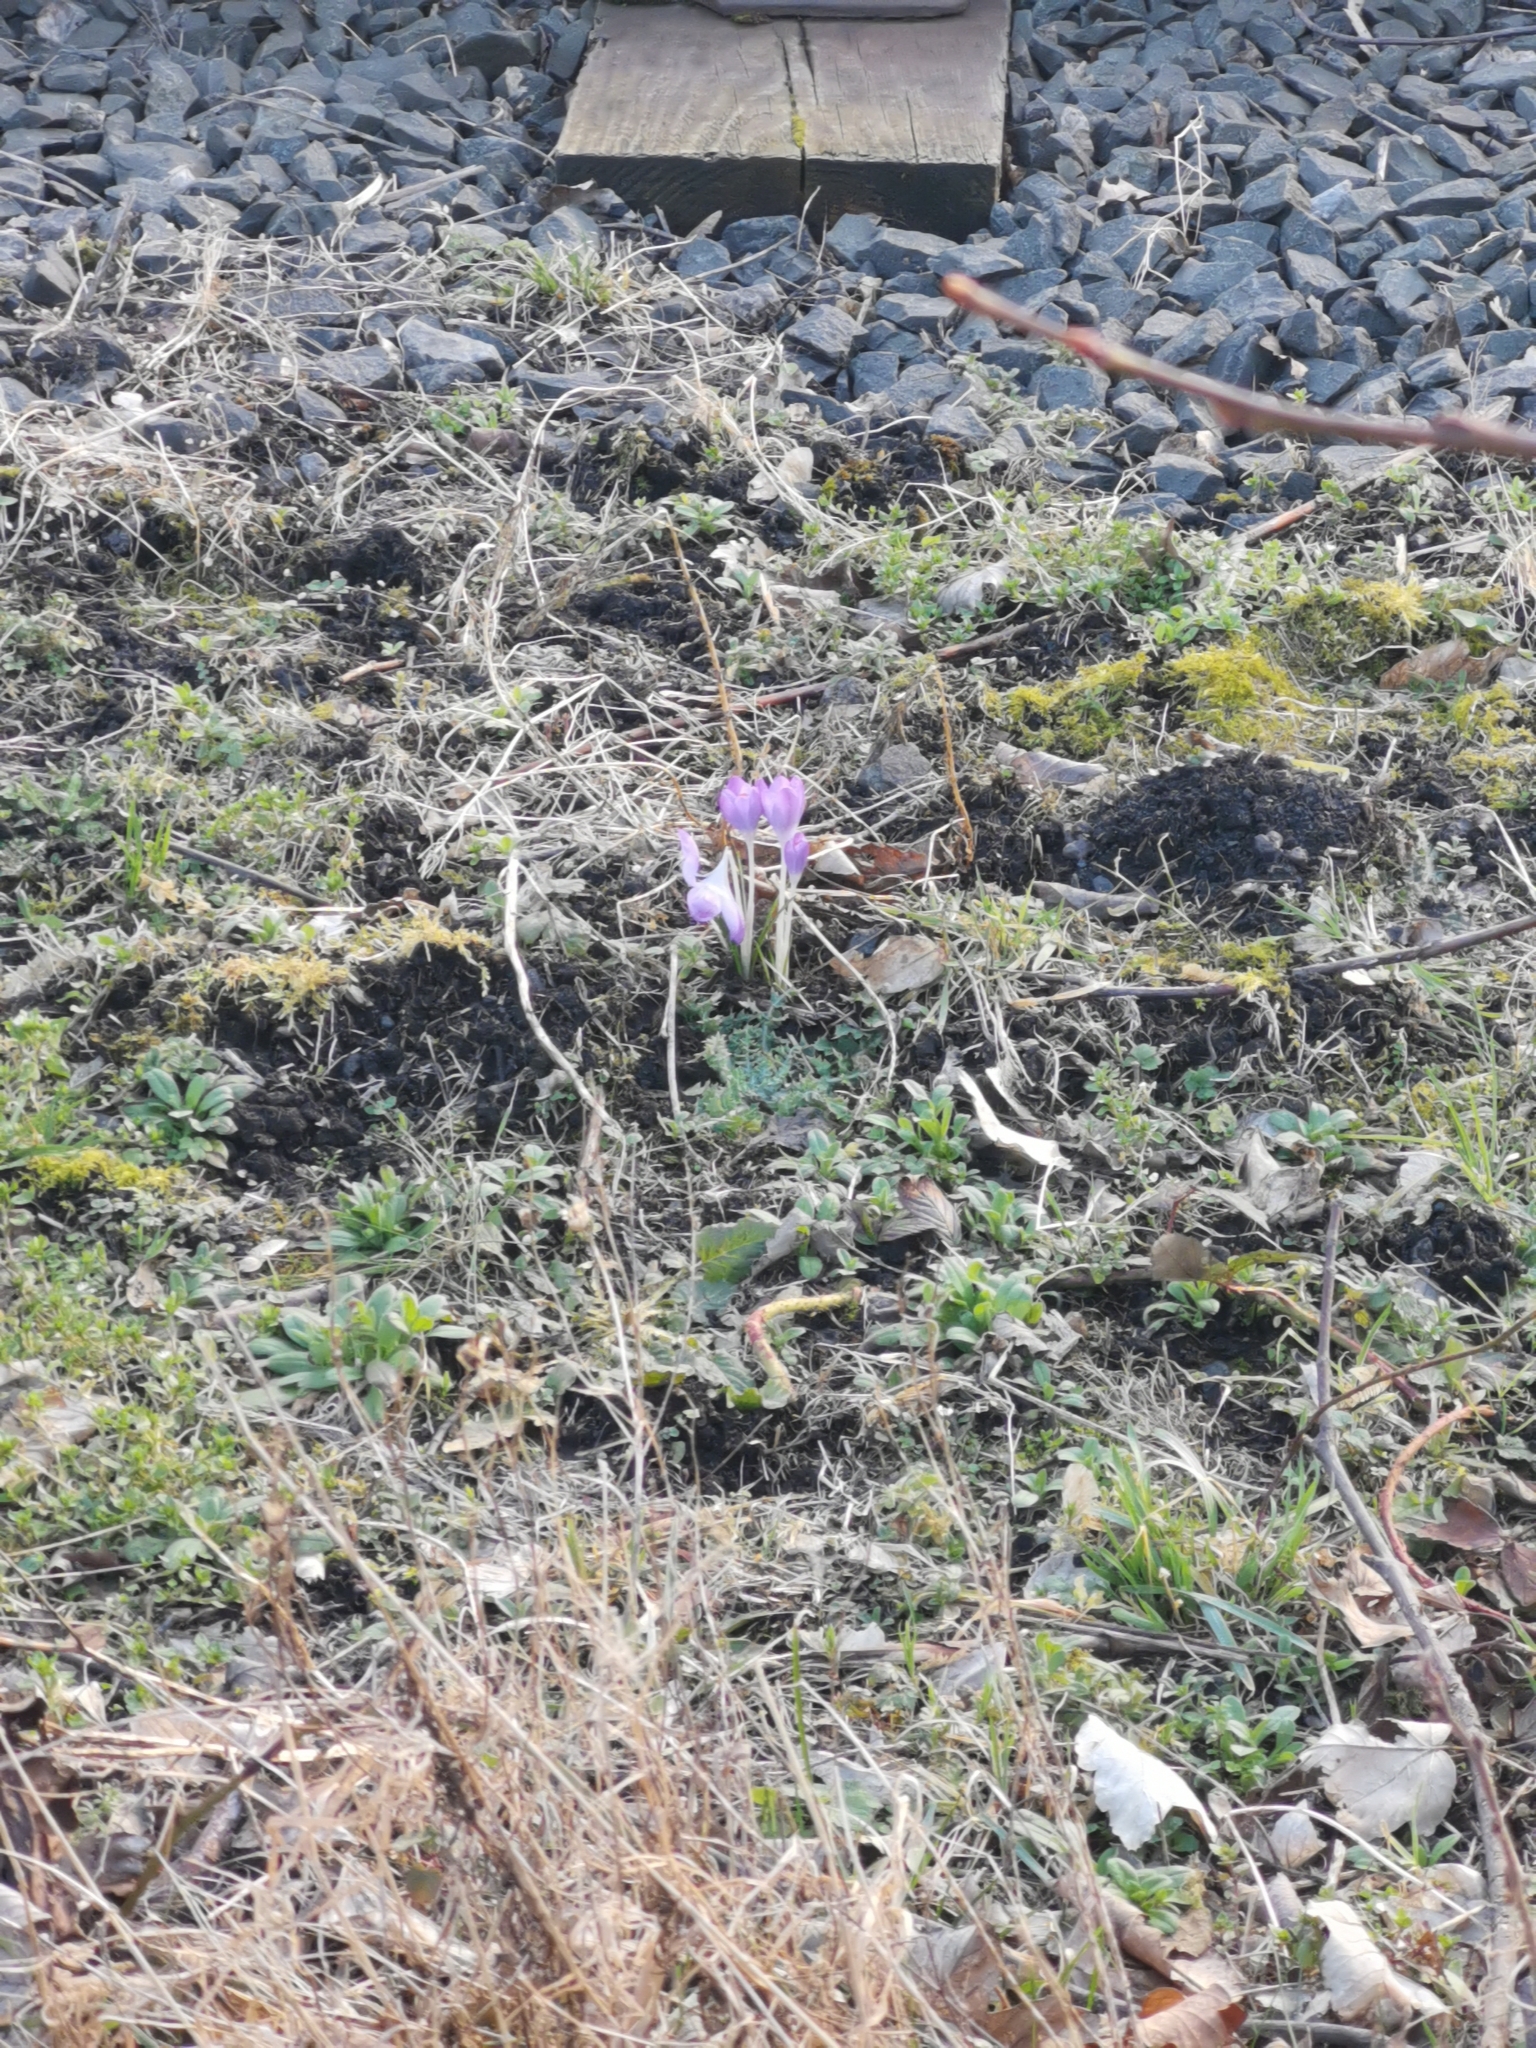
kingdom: Plantae
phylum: Tracheophyta
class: Liliopsida
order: Asparagales
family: Iridaceae
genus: Crocus
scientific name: Crocus tommasinianus
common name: Early crocus
